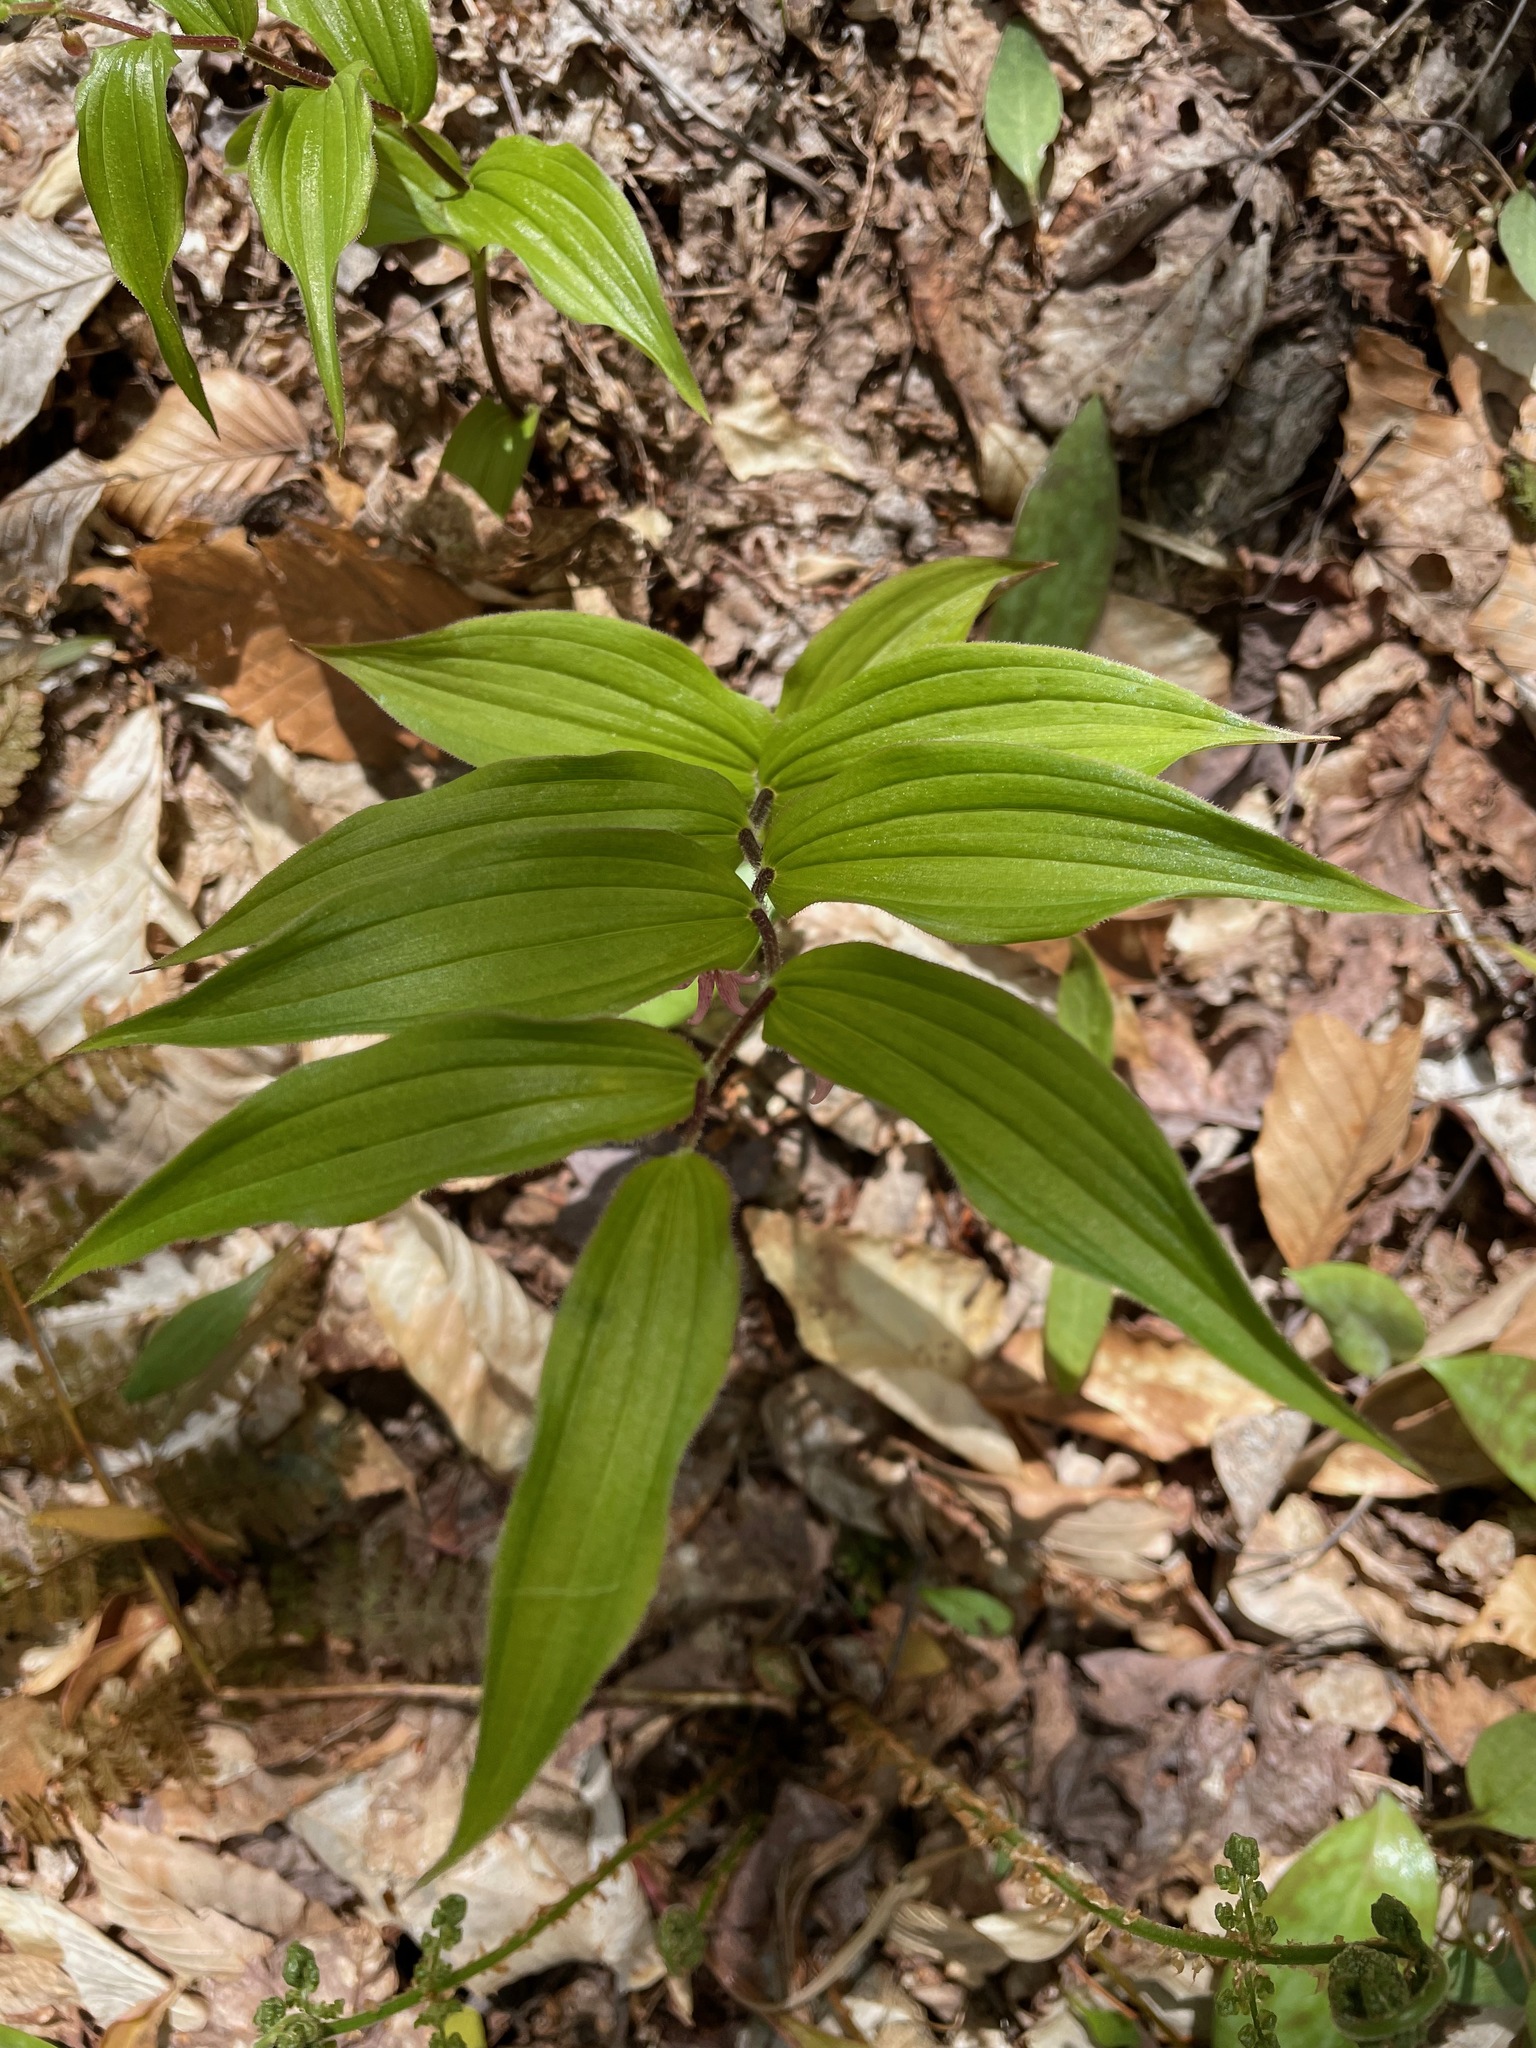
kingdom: Plantae
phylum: Tracheophyta
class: Liliopsida
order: Liliales
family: Liliaceae
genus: Streptopus
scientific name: Streptopus lanceolatus
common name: Rose mandarin
